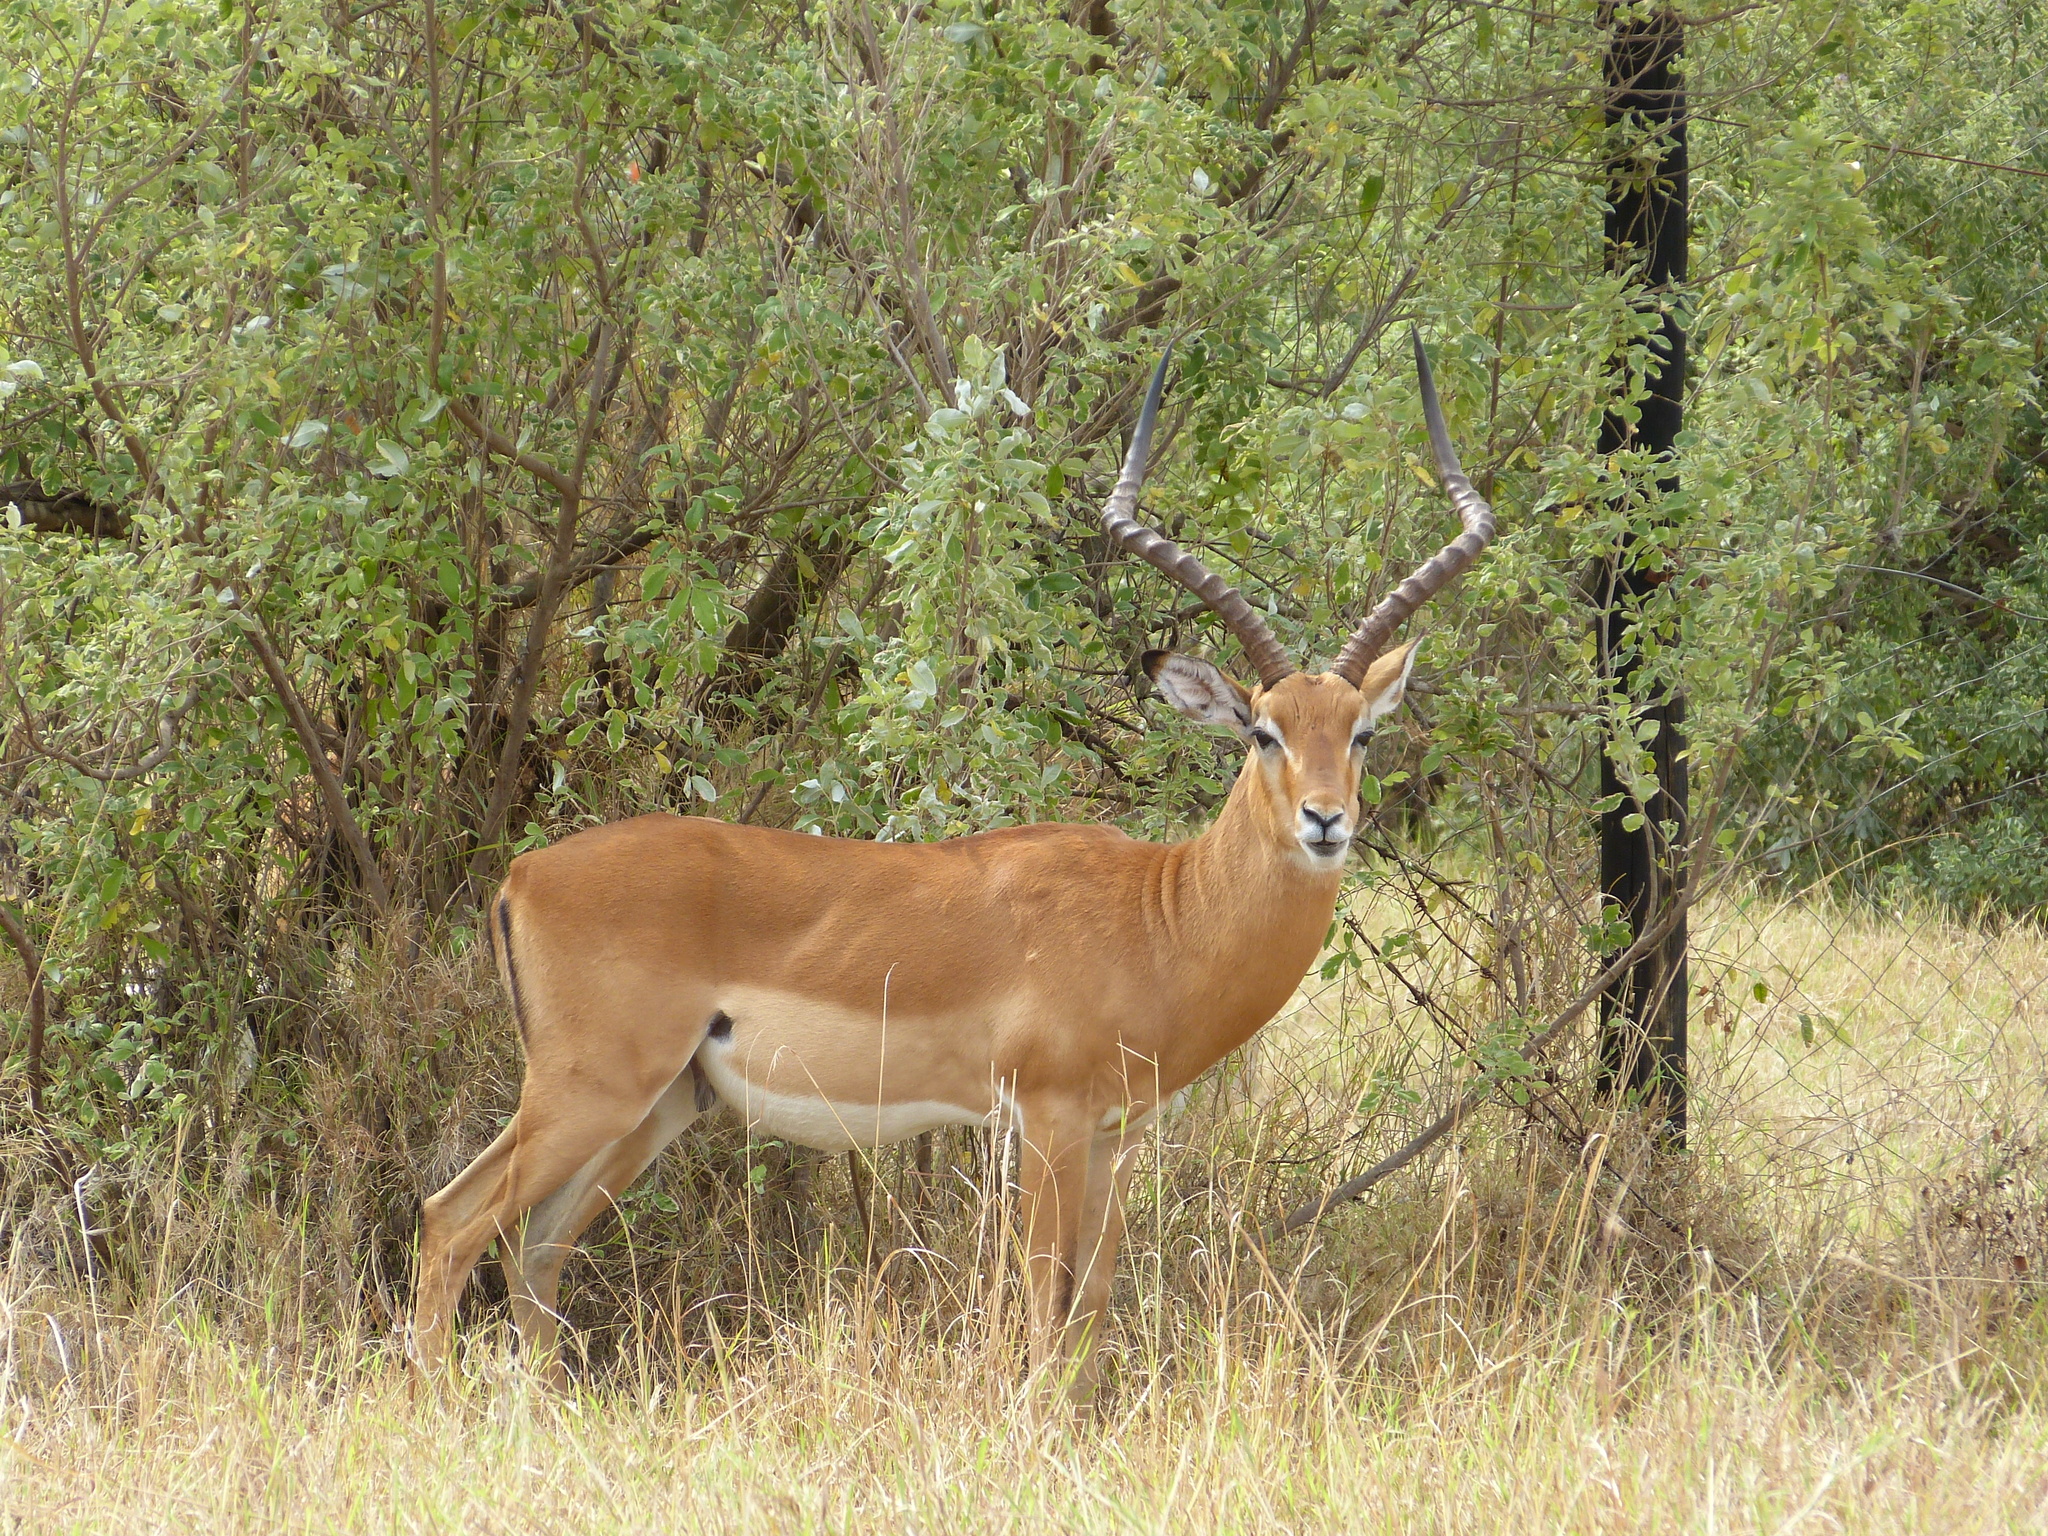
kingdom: Animalia
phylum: Chordata
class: Mammalia
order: Artiodactyla
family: Bovidae
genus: Aepyceros
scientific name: Aepyceros melampus
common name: Impala
